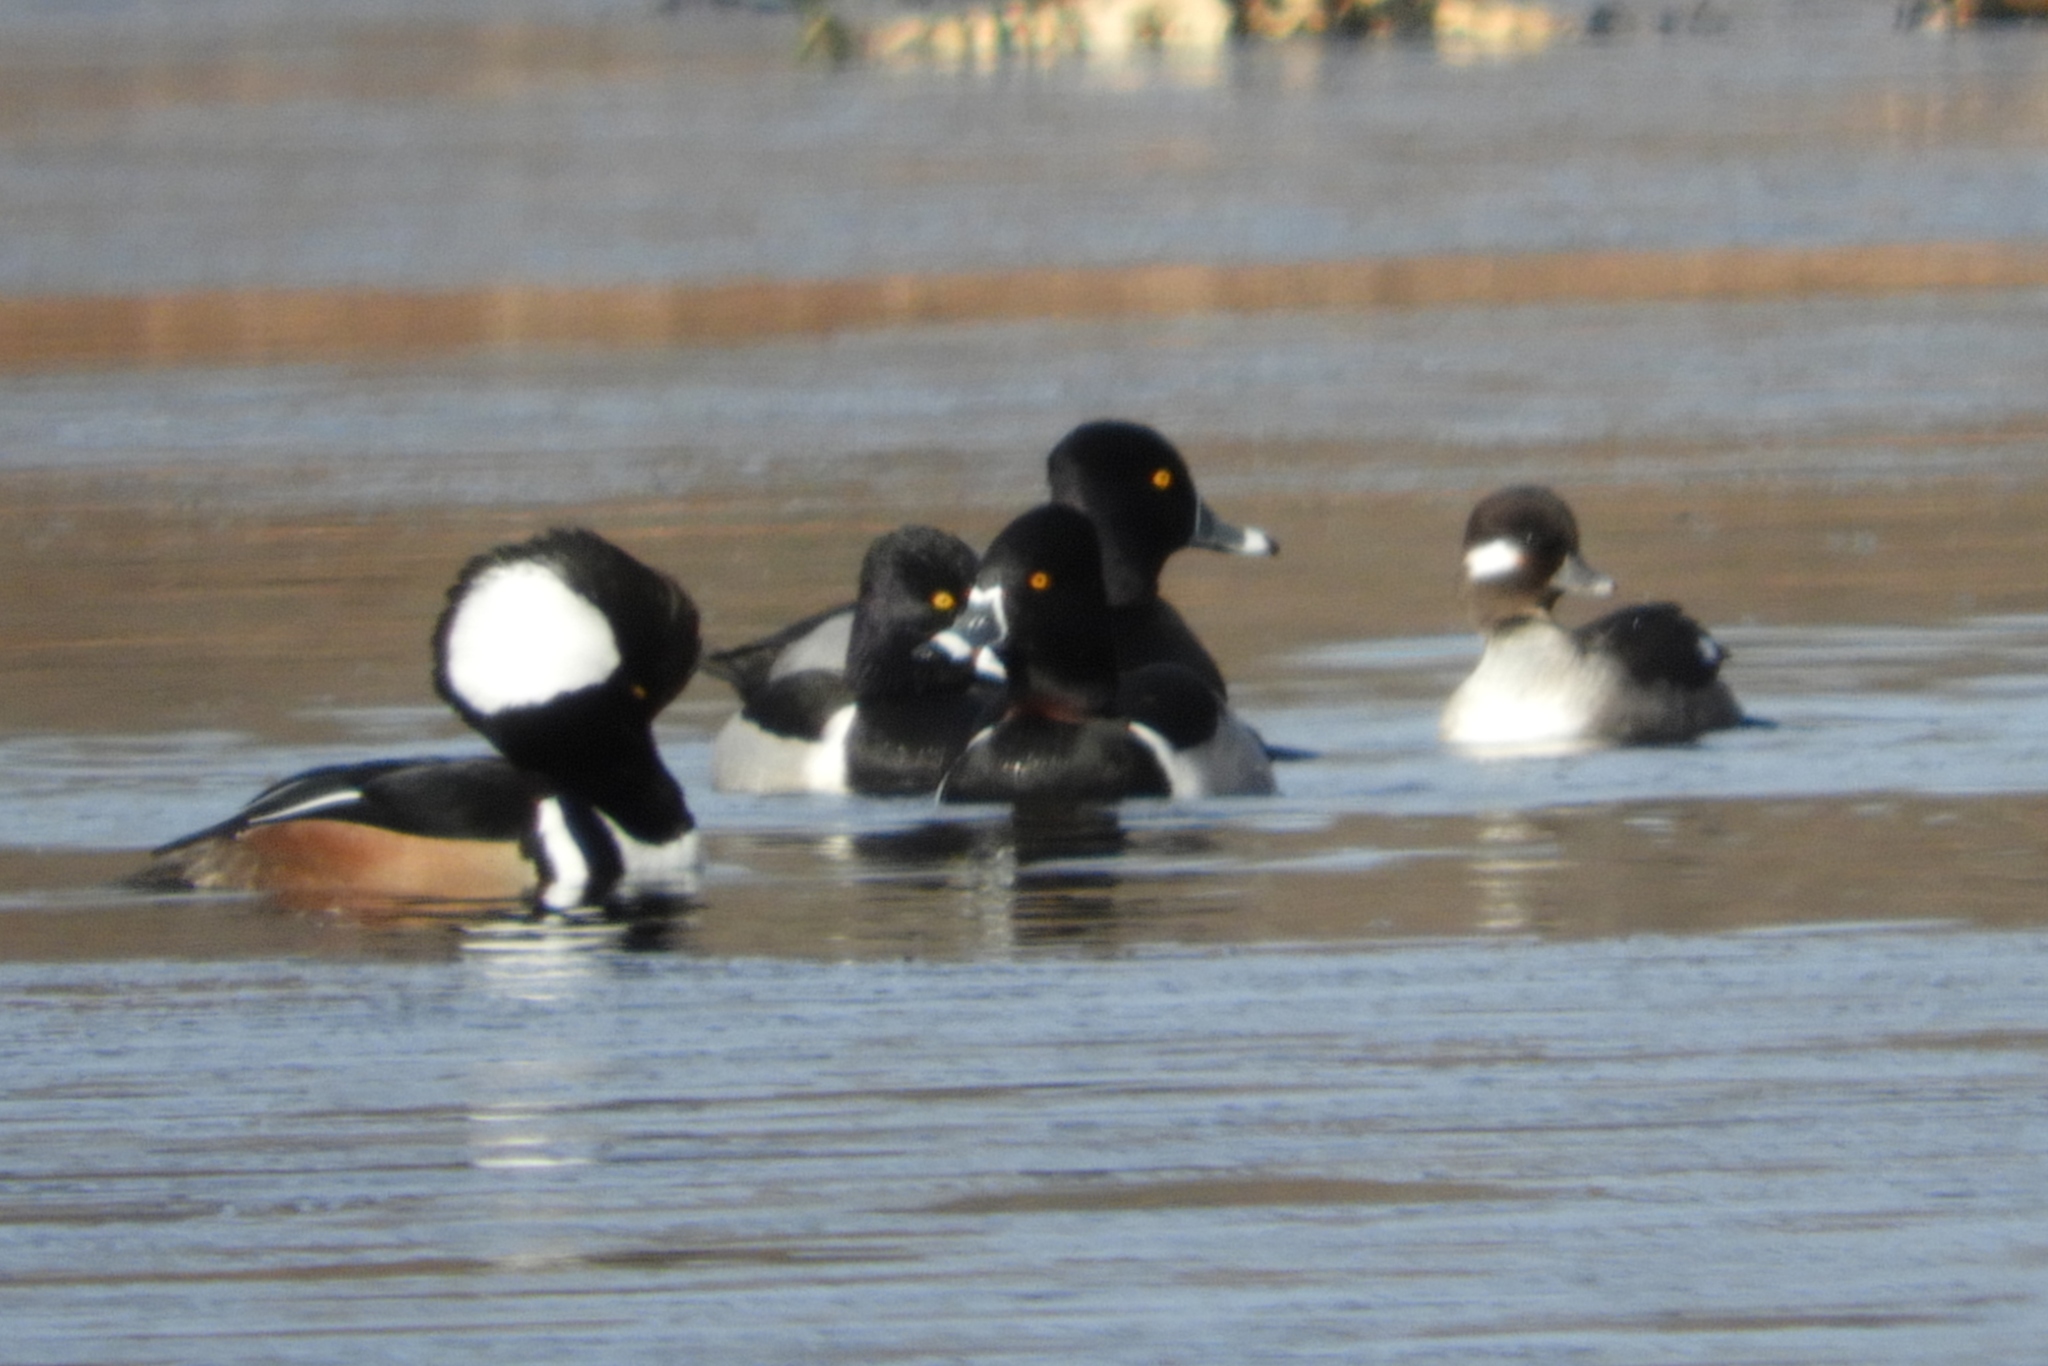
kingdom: Animalia
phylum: Chordata
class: Aves
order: Anseriformes
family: Anatidae
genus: Bucephala
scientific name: Bucephala albeola
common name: Bufflehead
